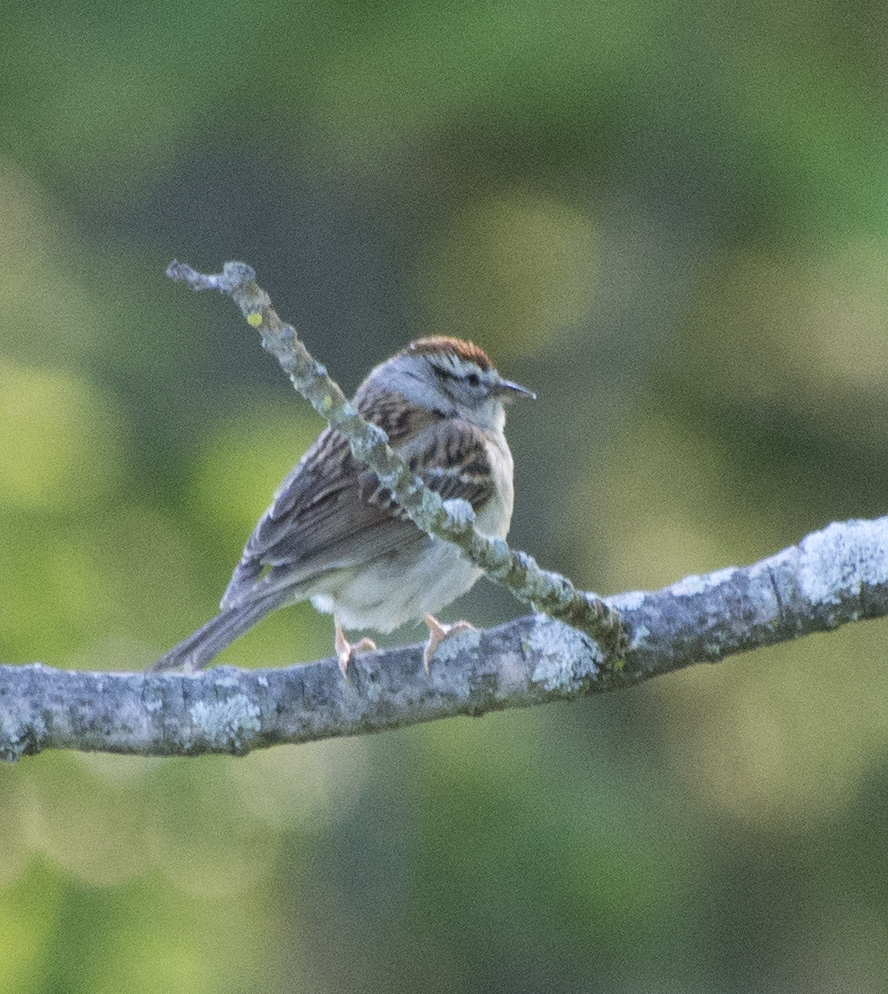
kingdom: Animalia
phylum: Chordata
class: Aves
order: Passeriformes
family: Passerellidae
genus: Spizella
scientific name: Spizella passerina
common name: Chipping sparrow
